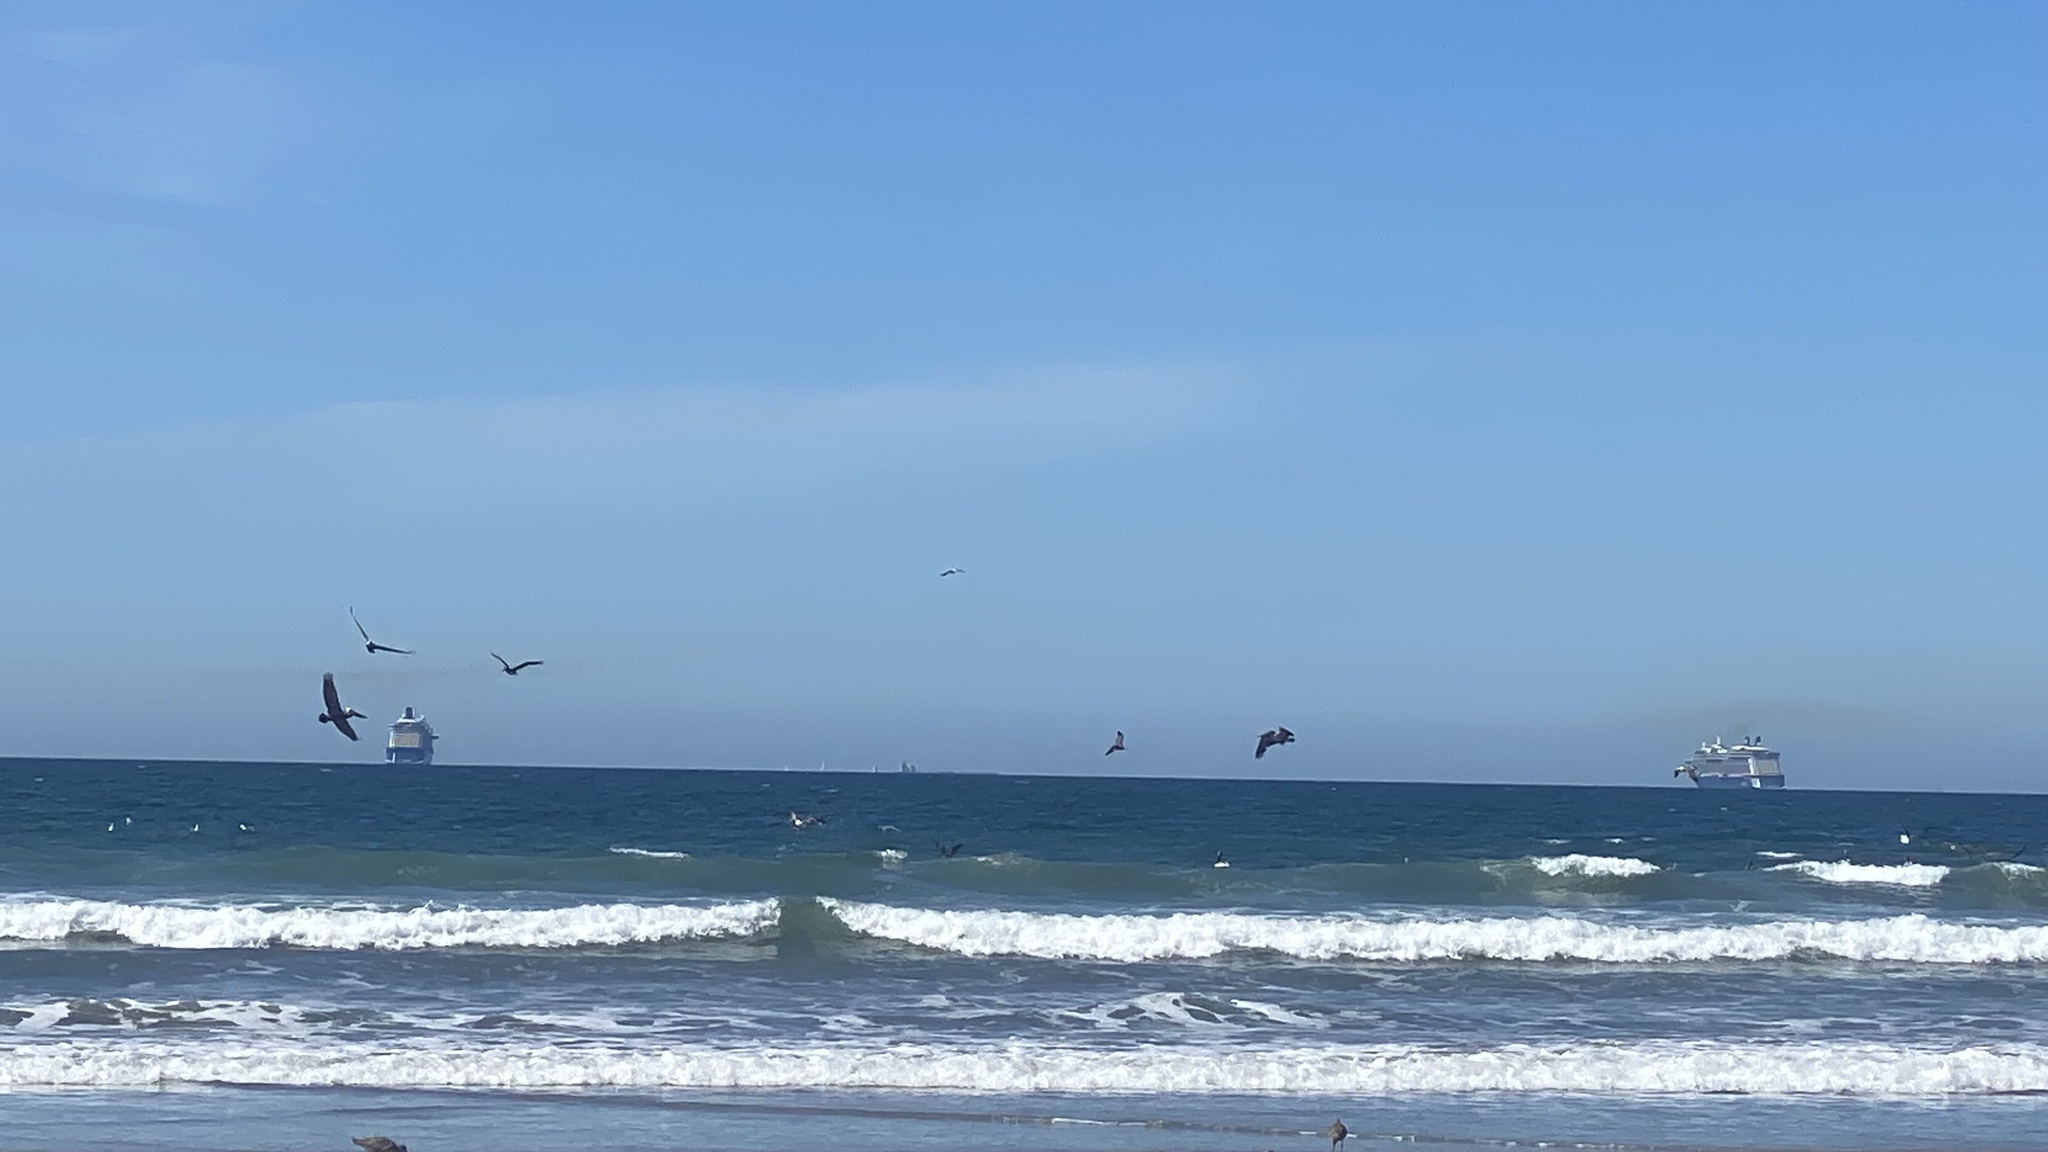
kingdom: Animalia
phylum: Chordata
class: Aves
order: Pelecaniformes
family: Pelecanidae
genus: Pelecanus
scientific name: Pelecanus erythrorhynchos
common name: American white pelican
